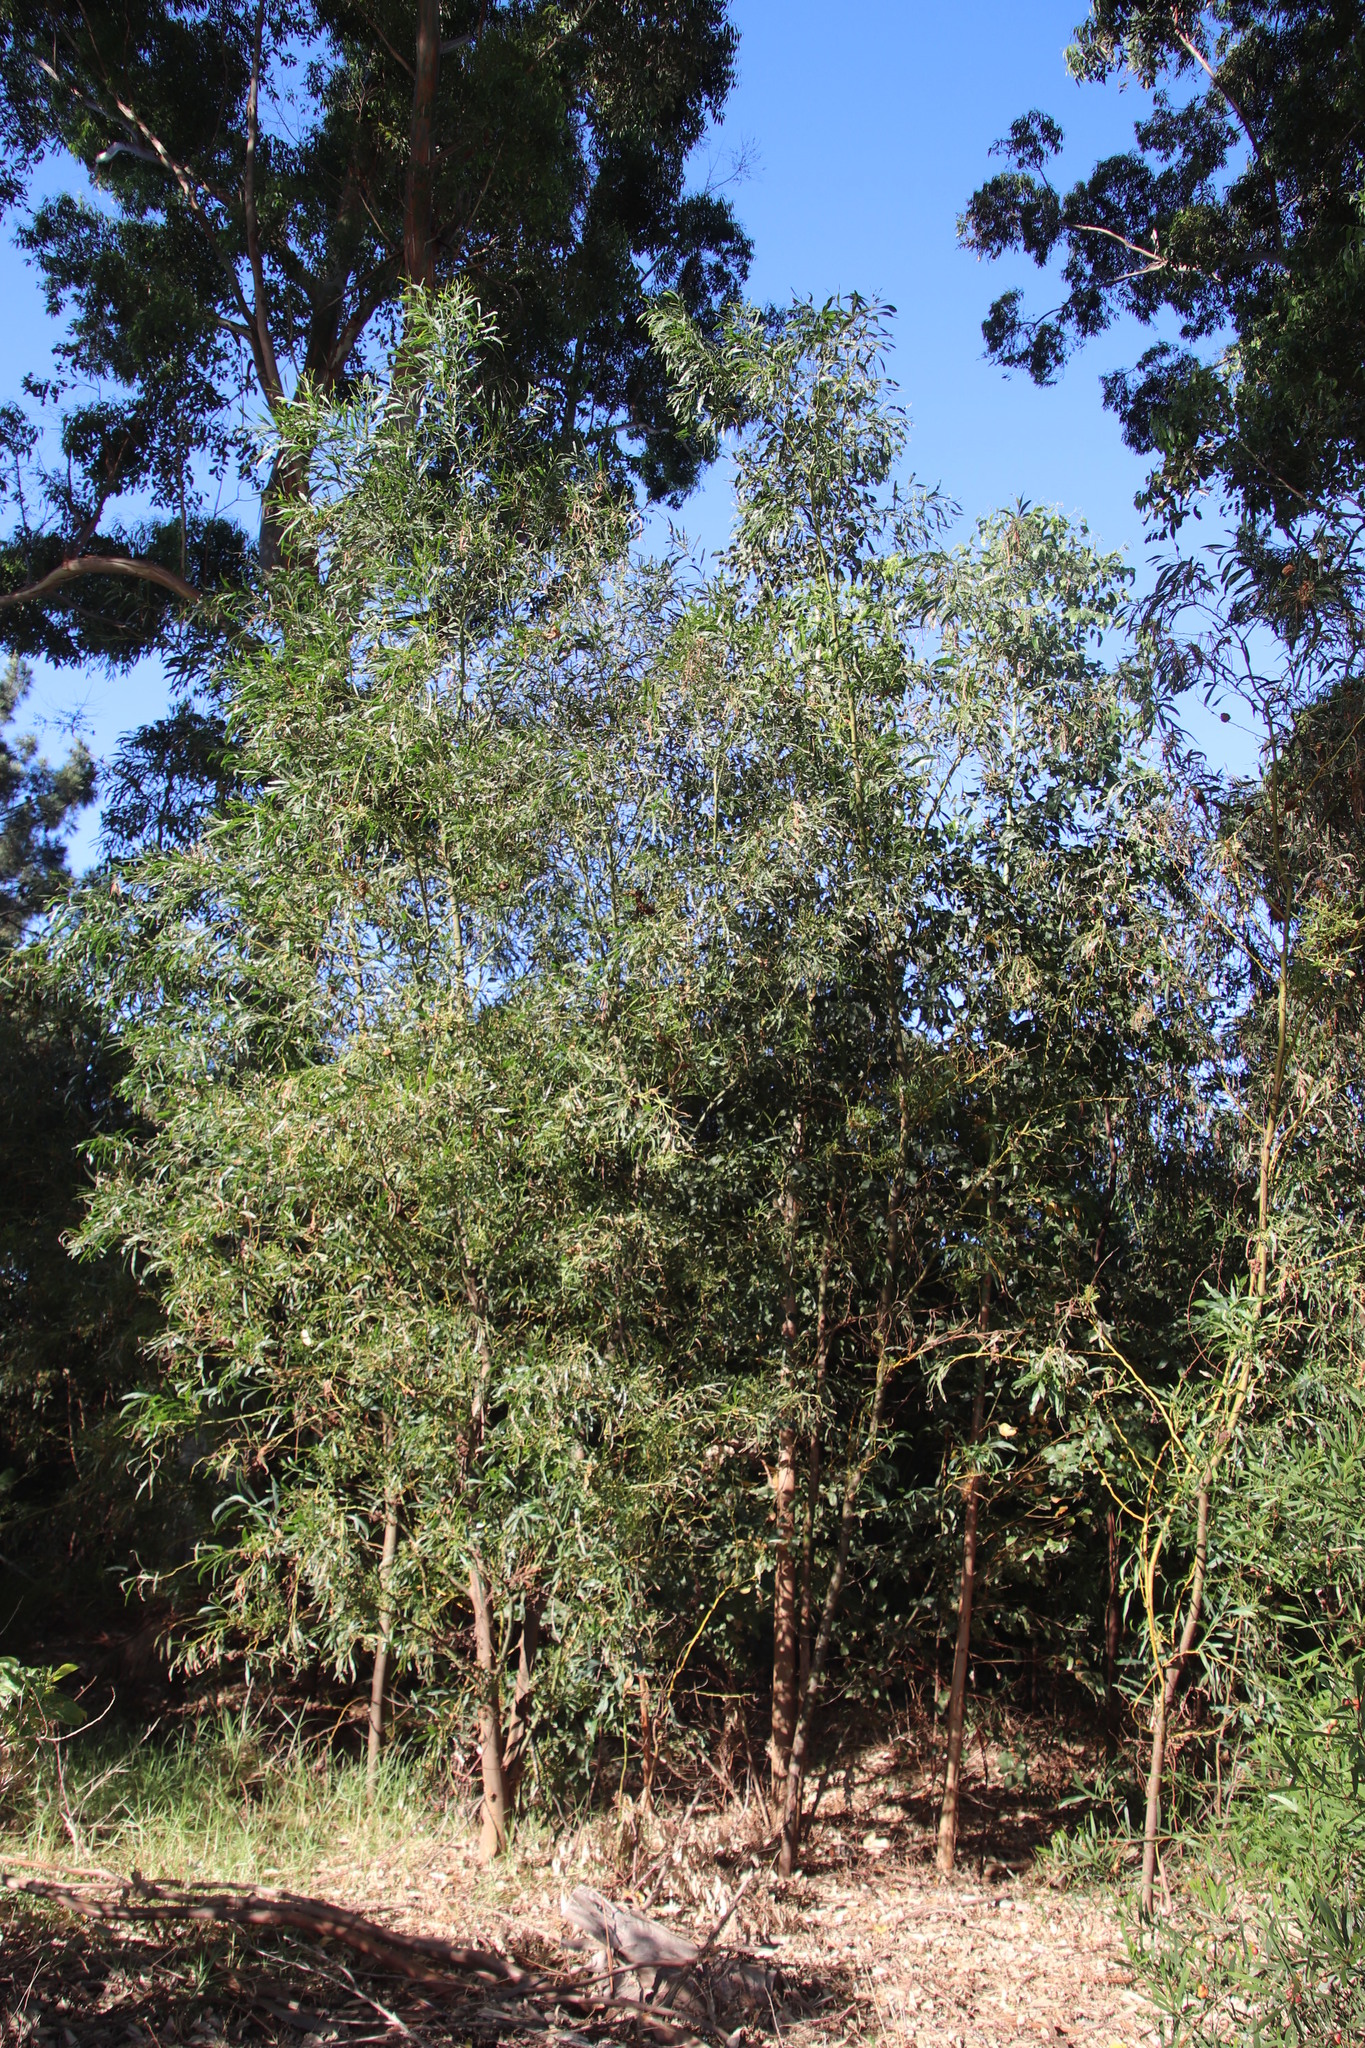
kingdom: Plantae
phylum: Tracheophyta
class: Magnoliopsida
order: Fabales
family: Fabaceae
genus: Acacia
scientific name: Acacia saligna
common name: Orange wattle
